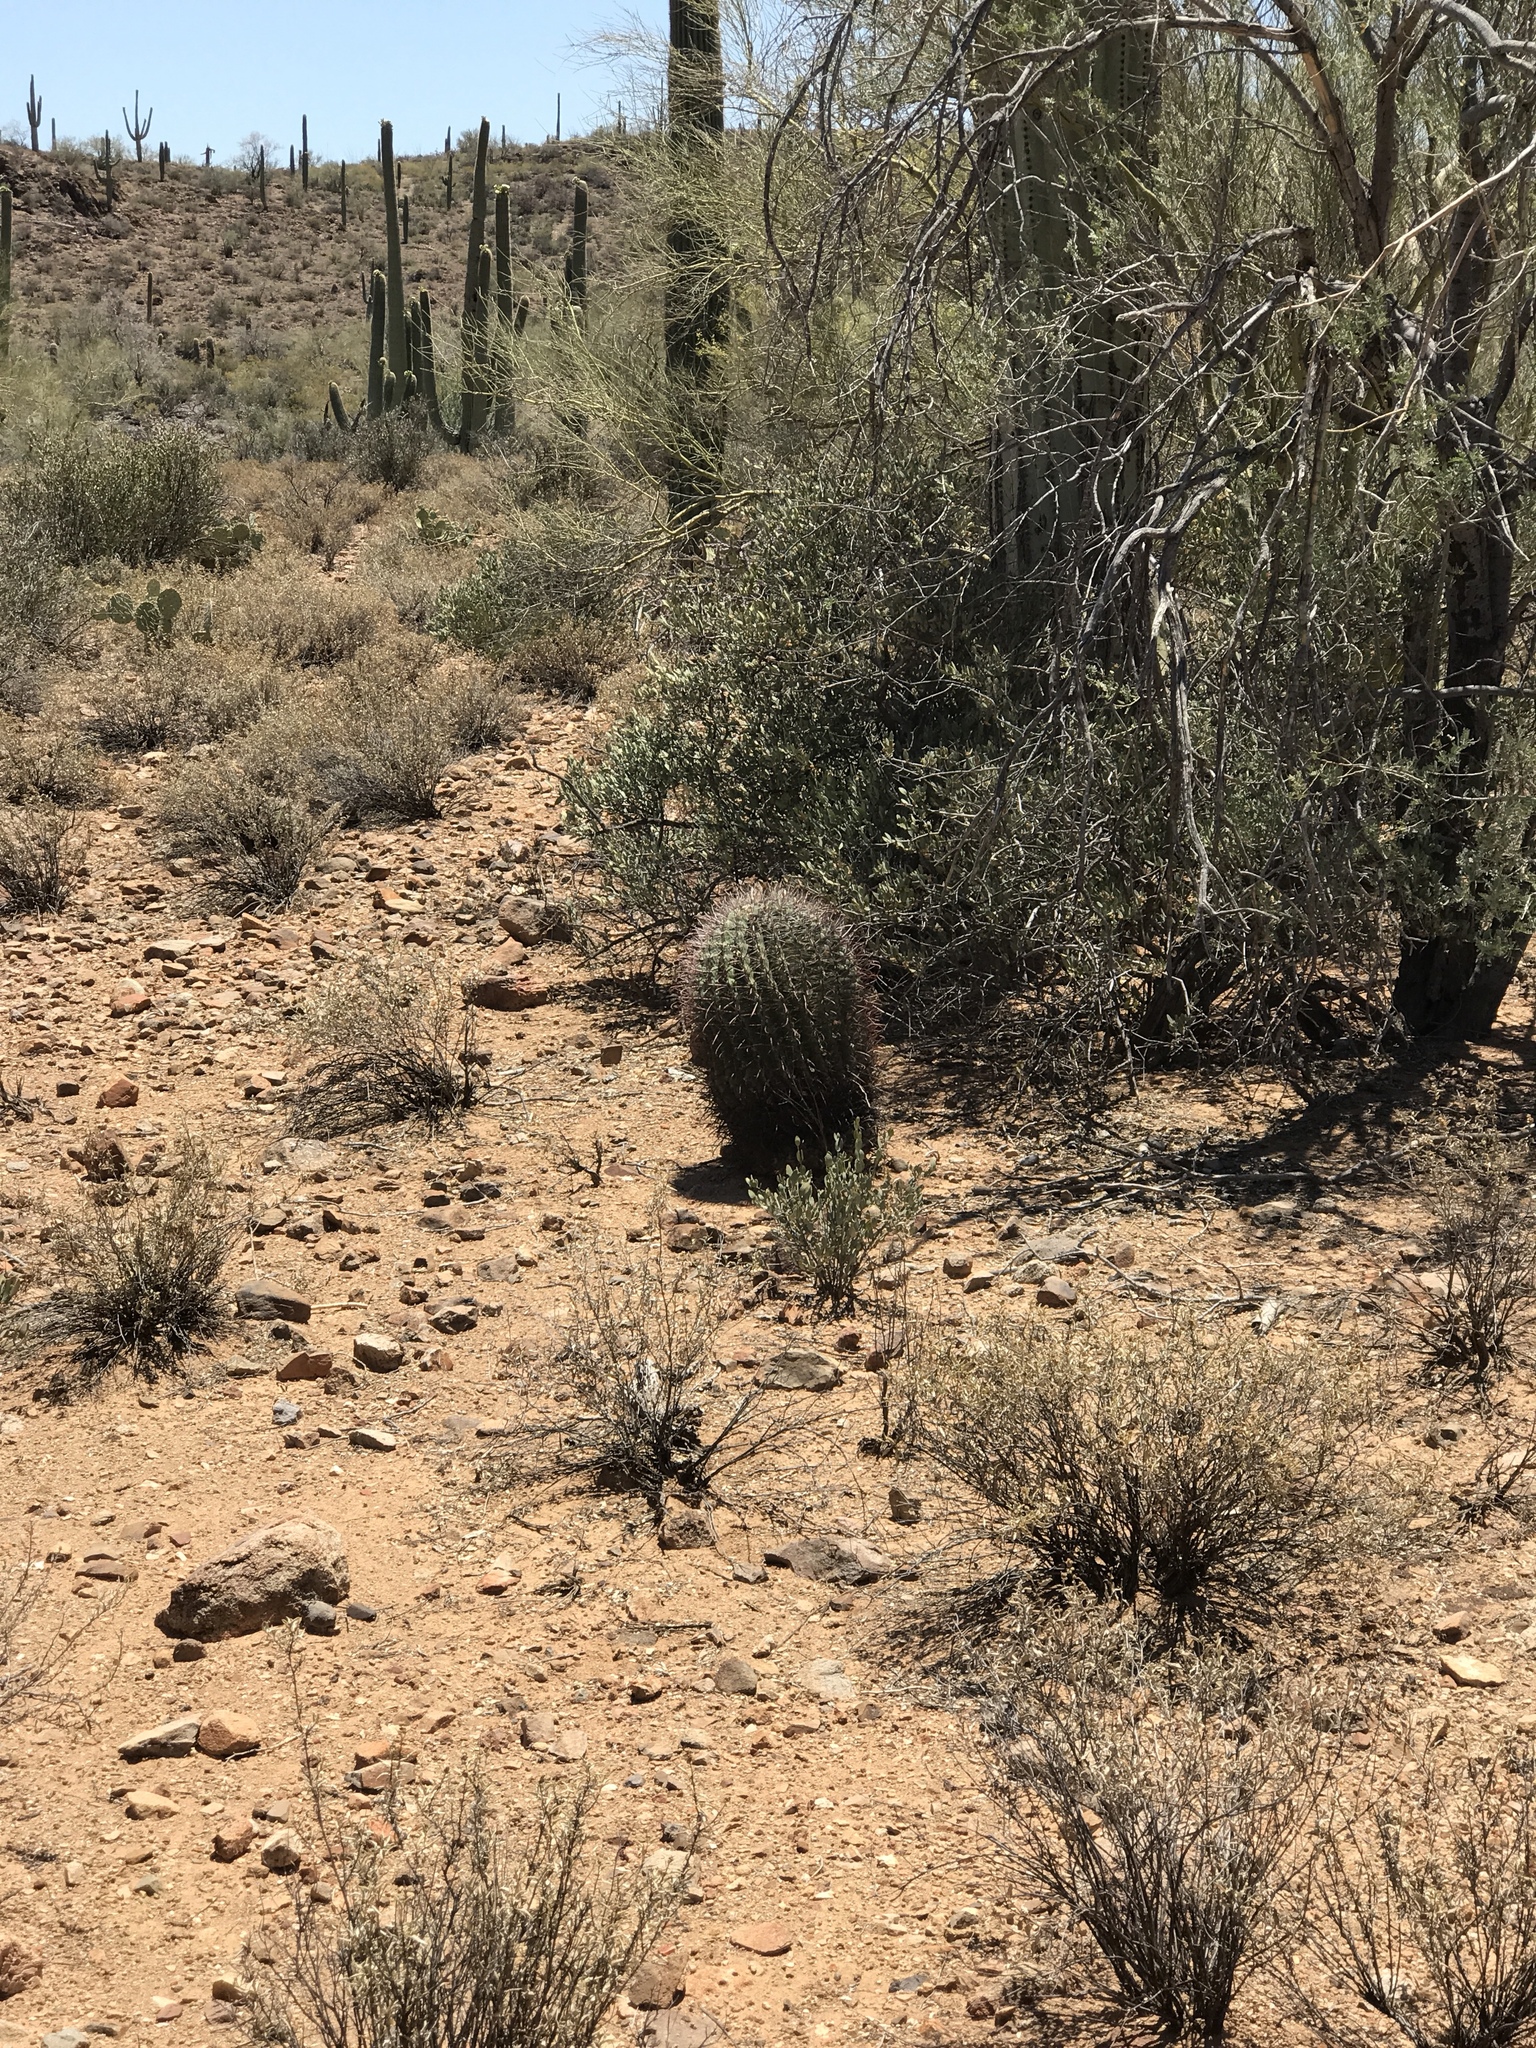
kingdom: Plantae
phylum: Tracheophyta
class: Magnoliopsida
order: Caryophyllales
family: Cactaceae
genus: Ferocactus
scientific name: Ferocactus wislizeni
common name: Candy barrel cactus
